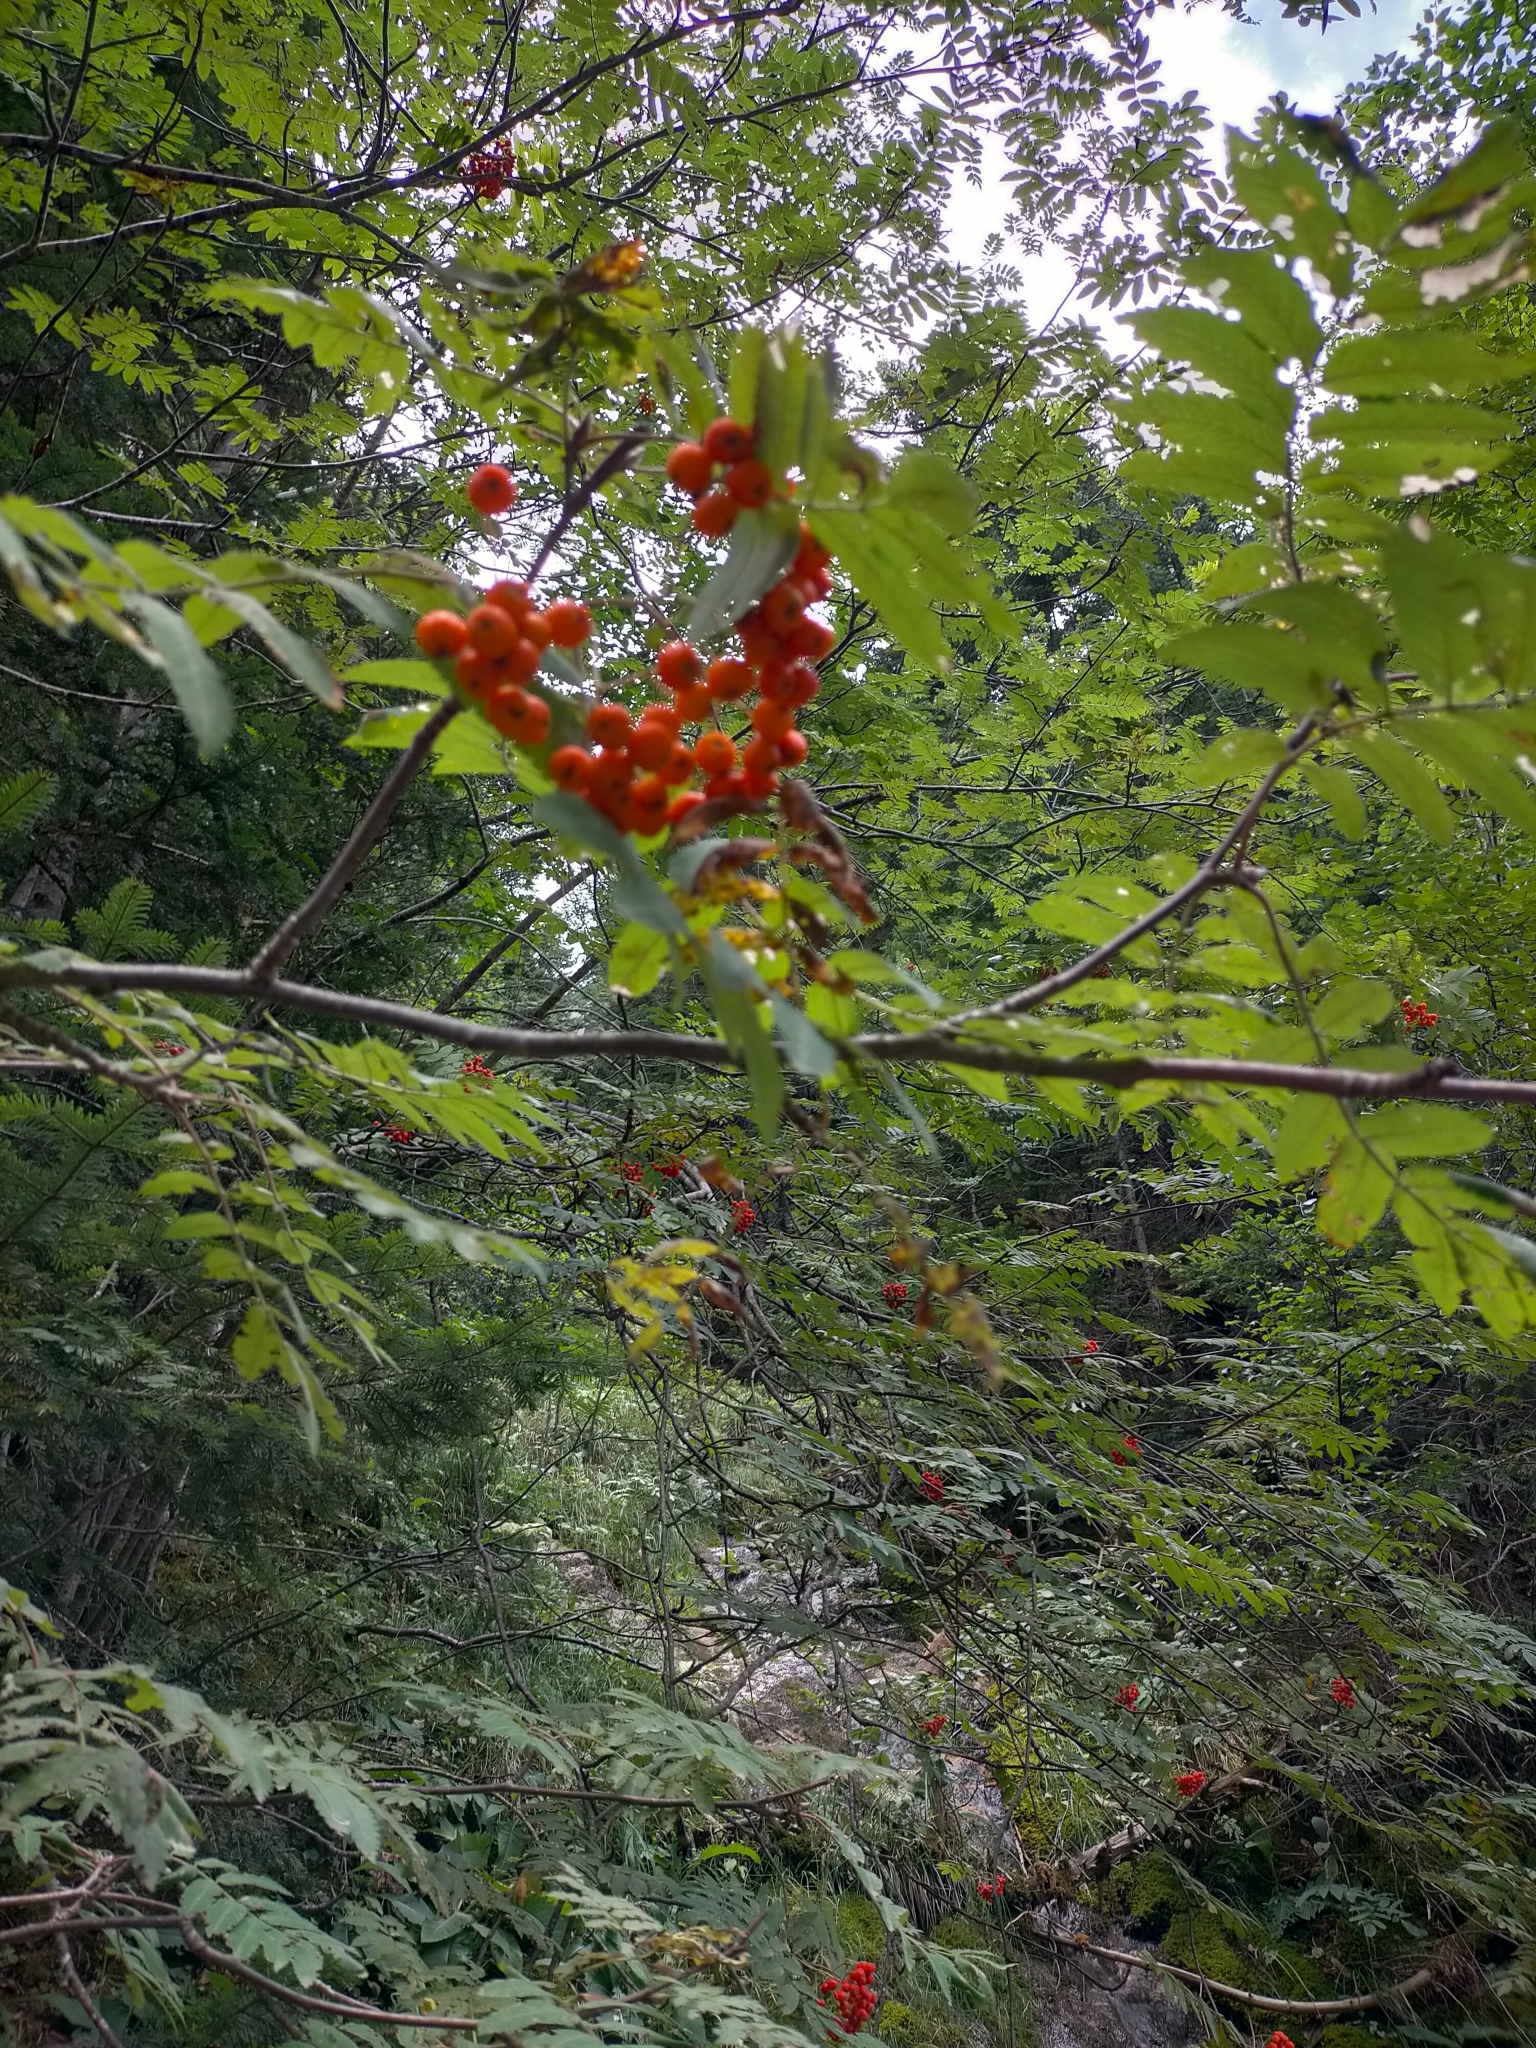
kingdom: Plantae
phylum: Tracheophyta
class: Magnoliopsida
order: Rosales
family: Rosaceae
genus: Sorbus
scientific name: Sorbus aucuparia
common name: Rowan
